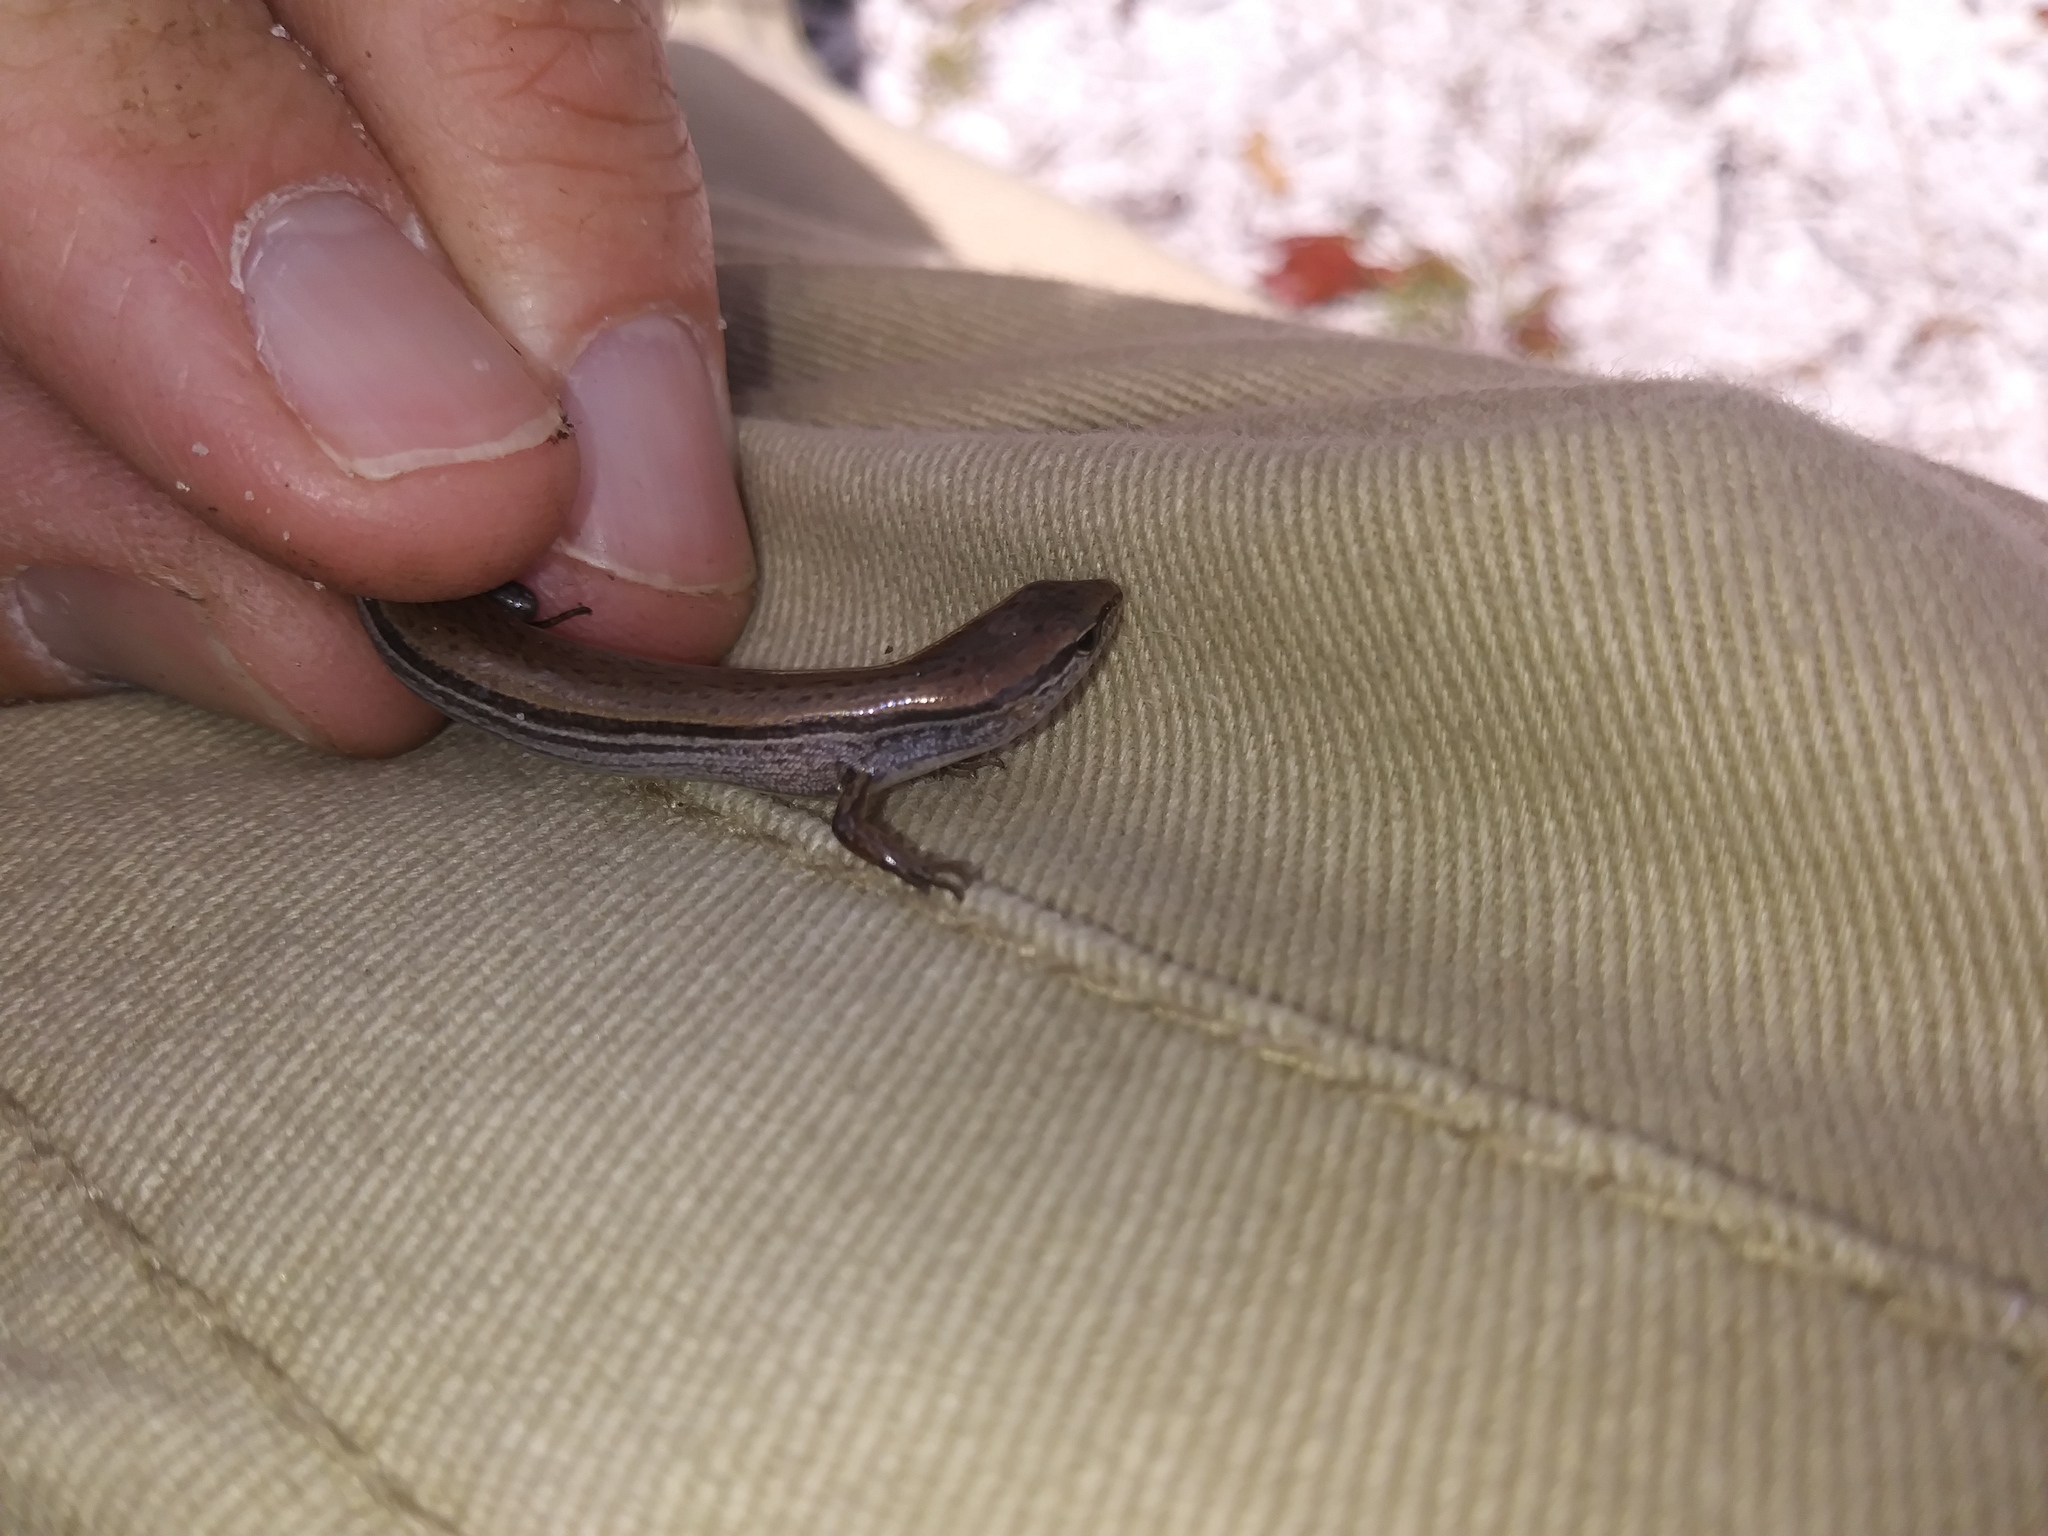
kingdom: Animalia
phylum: Chordata
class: Squamata
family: Scincidae
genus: Scincella
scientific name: Scincella lateralis
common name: Ground skink
